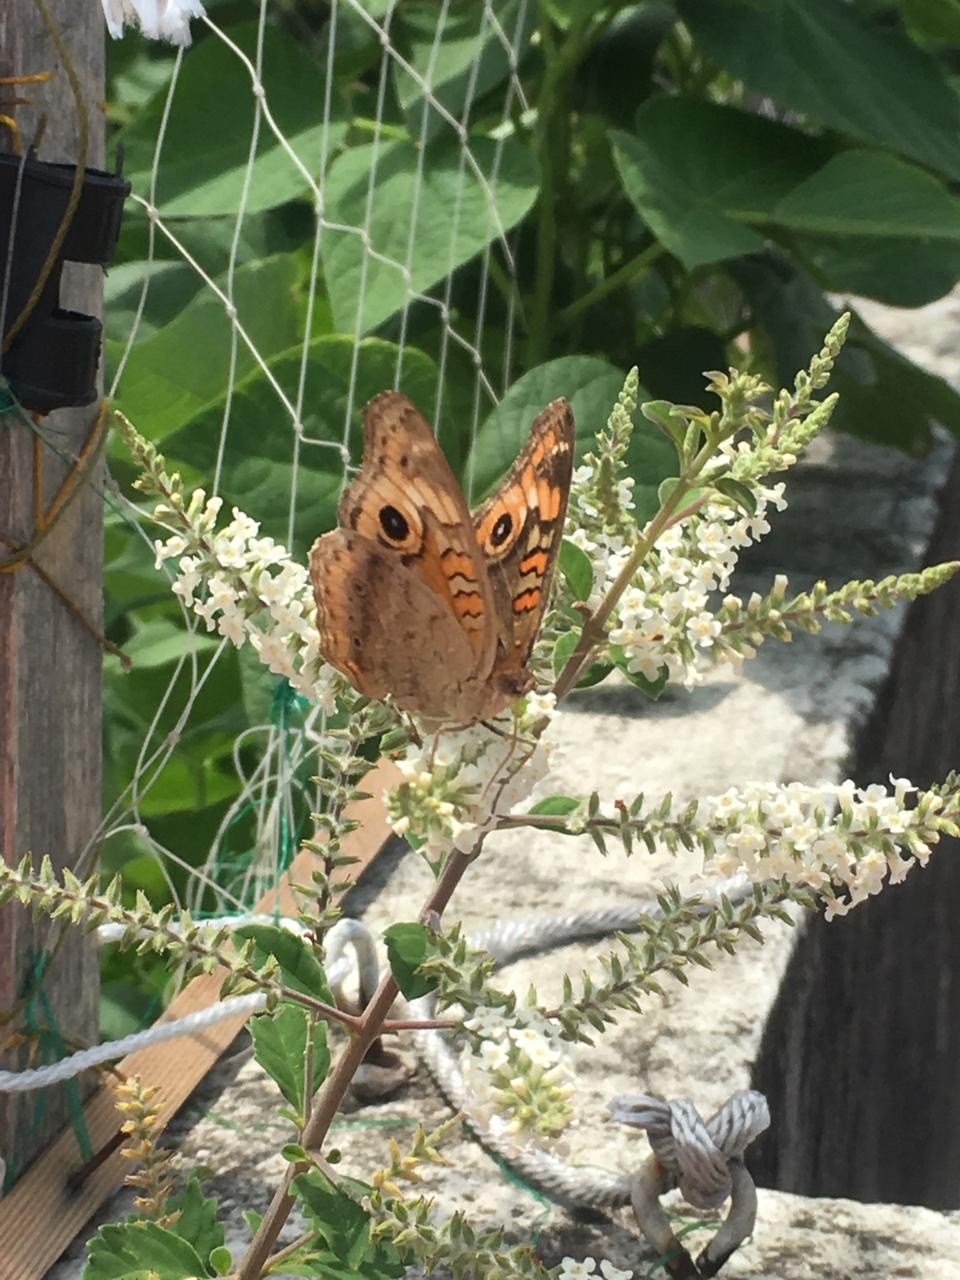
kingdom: Animalia
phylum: Arthropoda
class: Insecta
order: Lepidoptera
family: Nymphalidae
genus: Junonia
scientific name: Junonia lavinia
